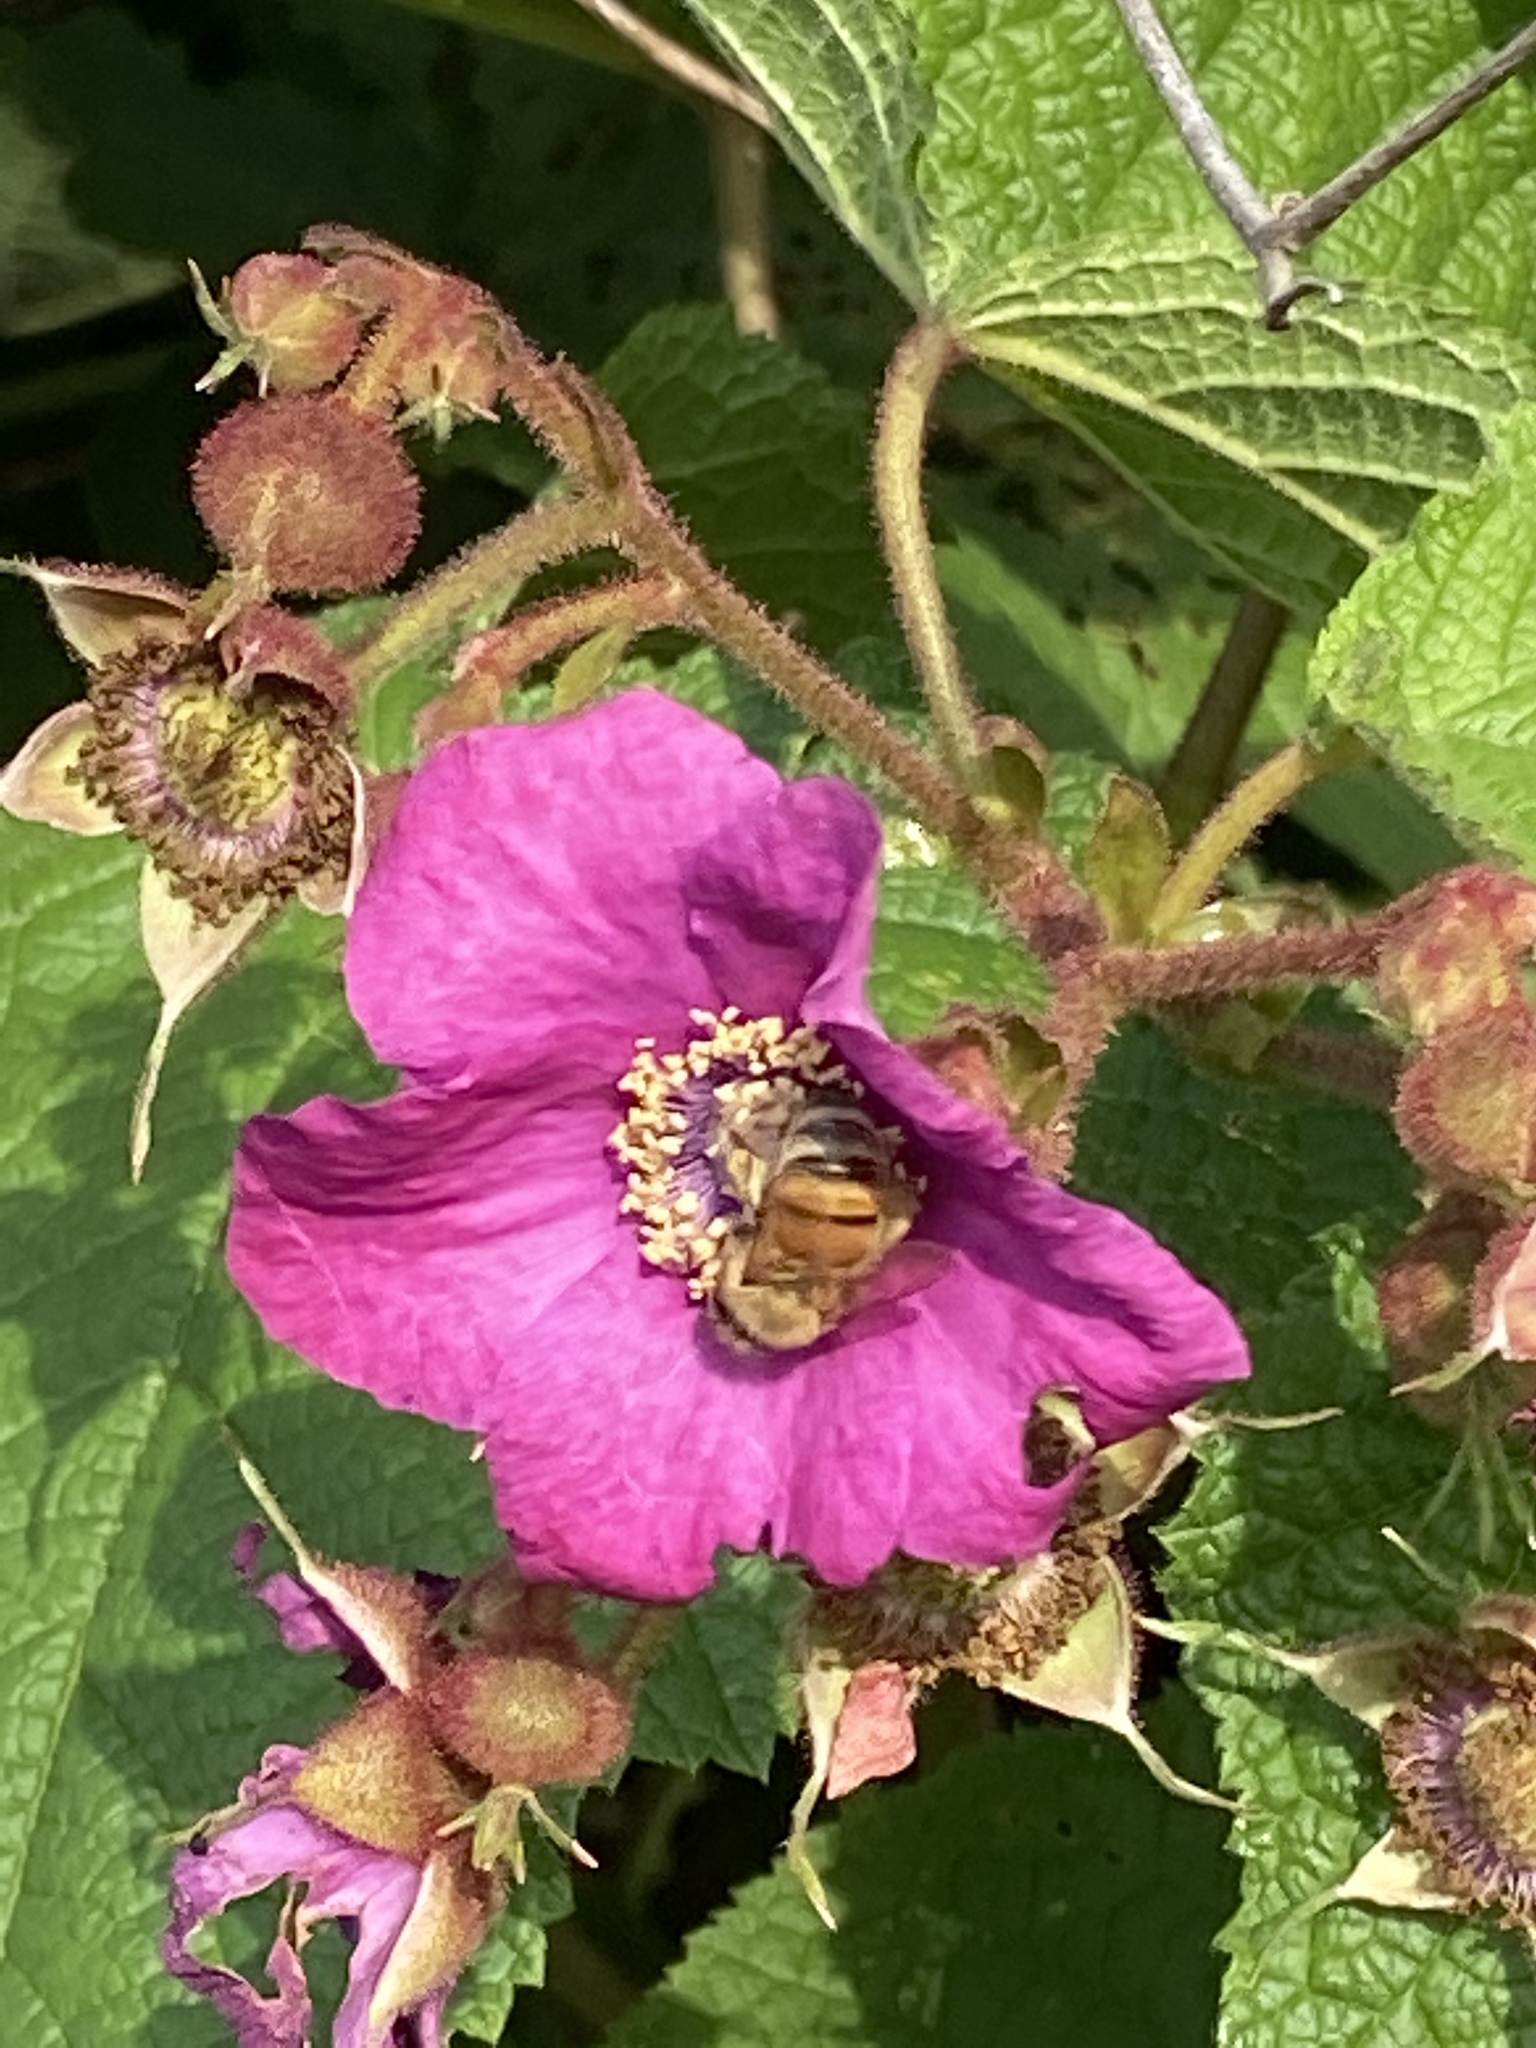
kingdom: Animalia
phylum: Arthropoda
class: Insecta
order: Hymenoptera
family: Apidae
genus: Apis
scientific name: Apis mellifera
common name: Honey bee
